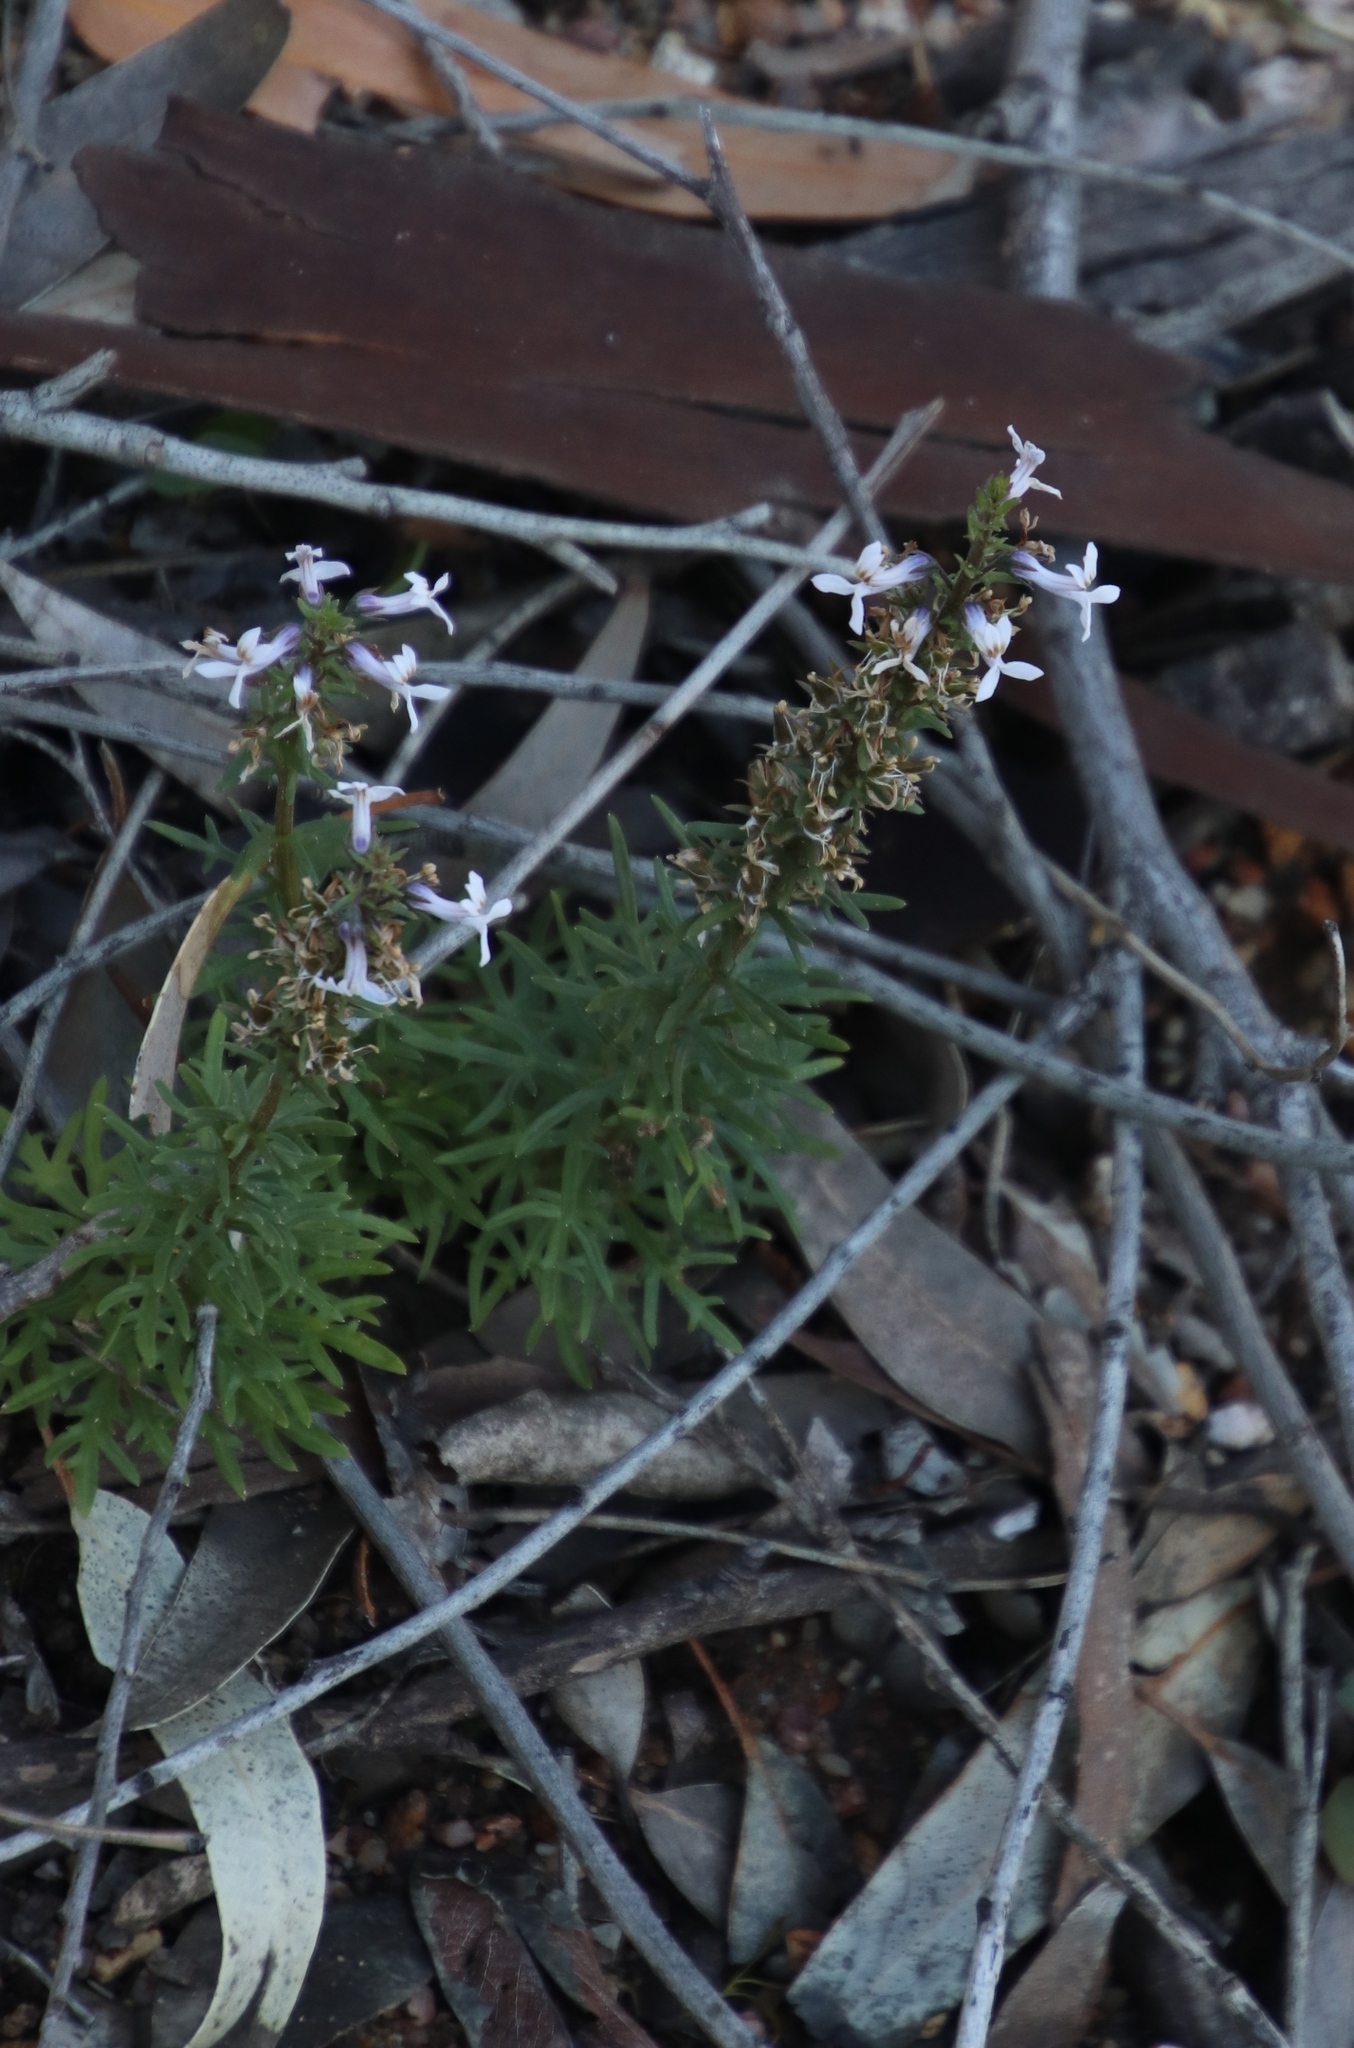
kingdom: Plantae
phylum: Tracheophyta
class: Magnoliopsida
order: Asterales
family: Campanulaceae
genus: Cyphia
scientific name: Cyphia bulbosa
